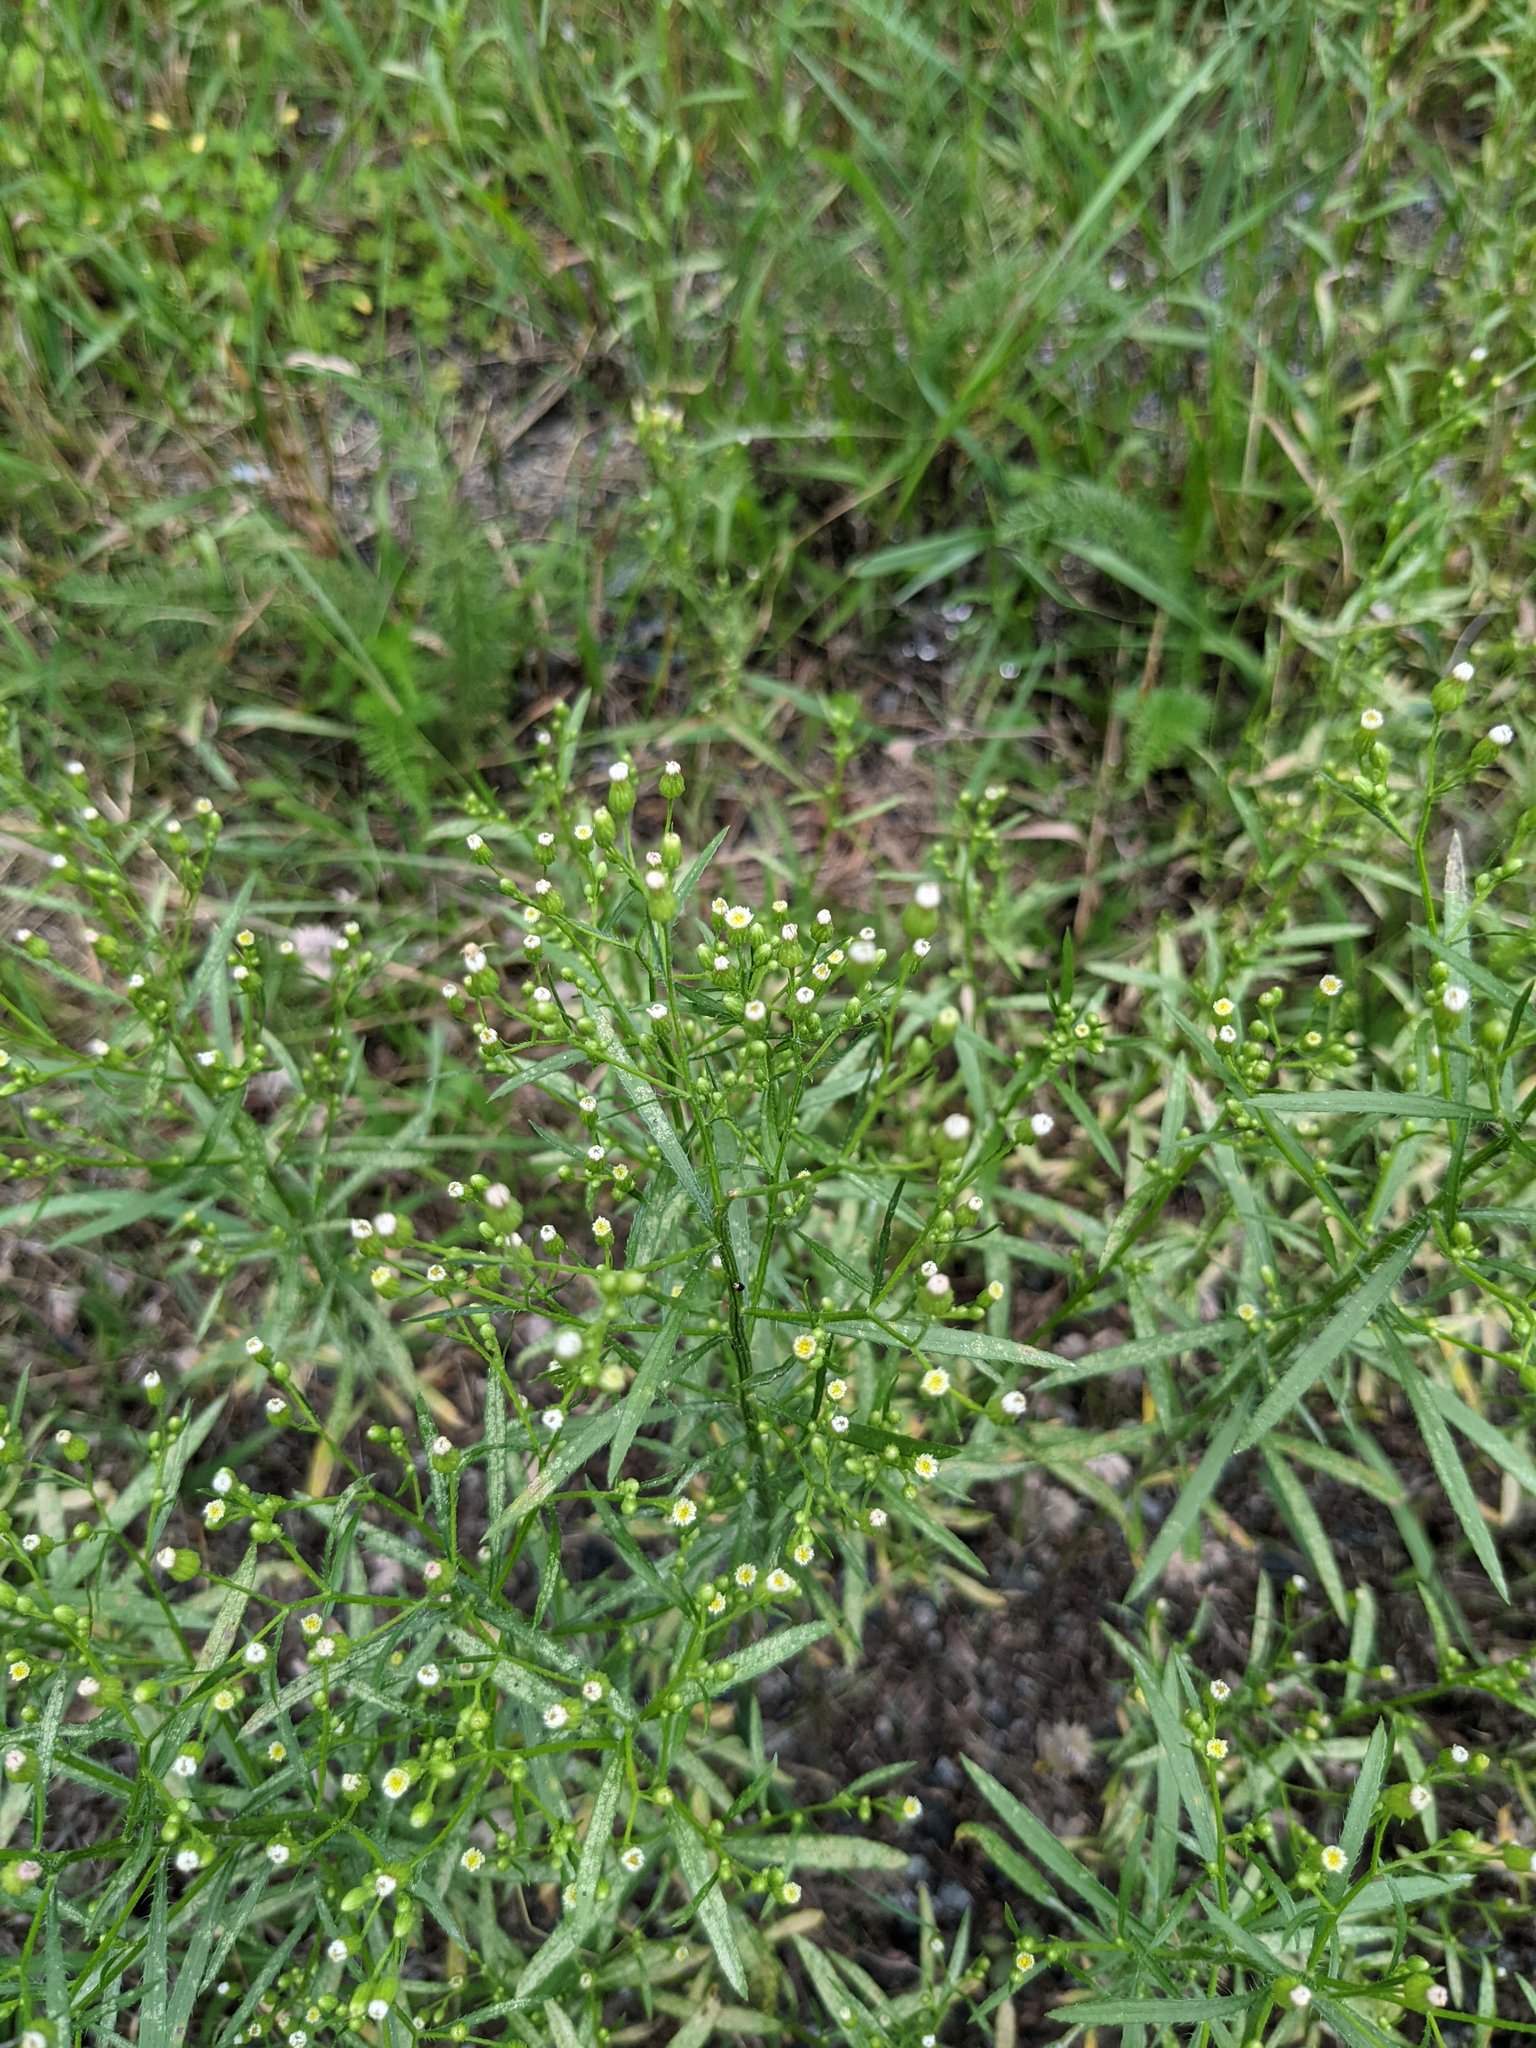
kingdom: Plantae
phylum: Tracheophyta
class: Magnoliopsida
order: Asterales
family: Asteraceae
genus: Erigeron
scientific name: Erigeron canadensis
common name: Canadian fleabane
